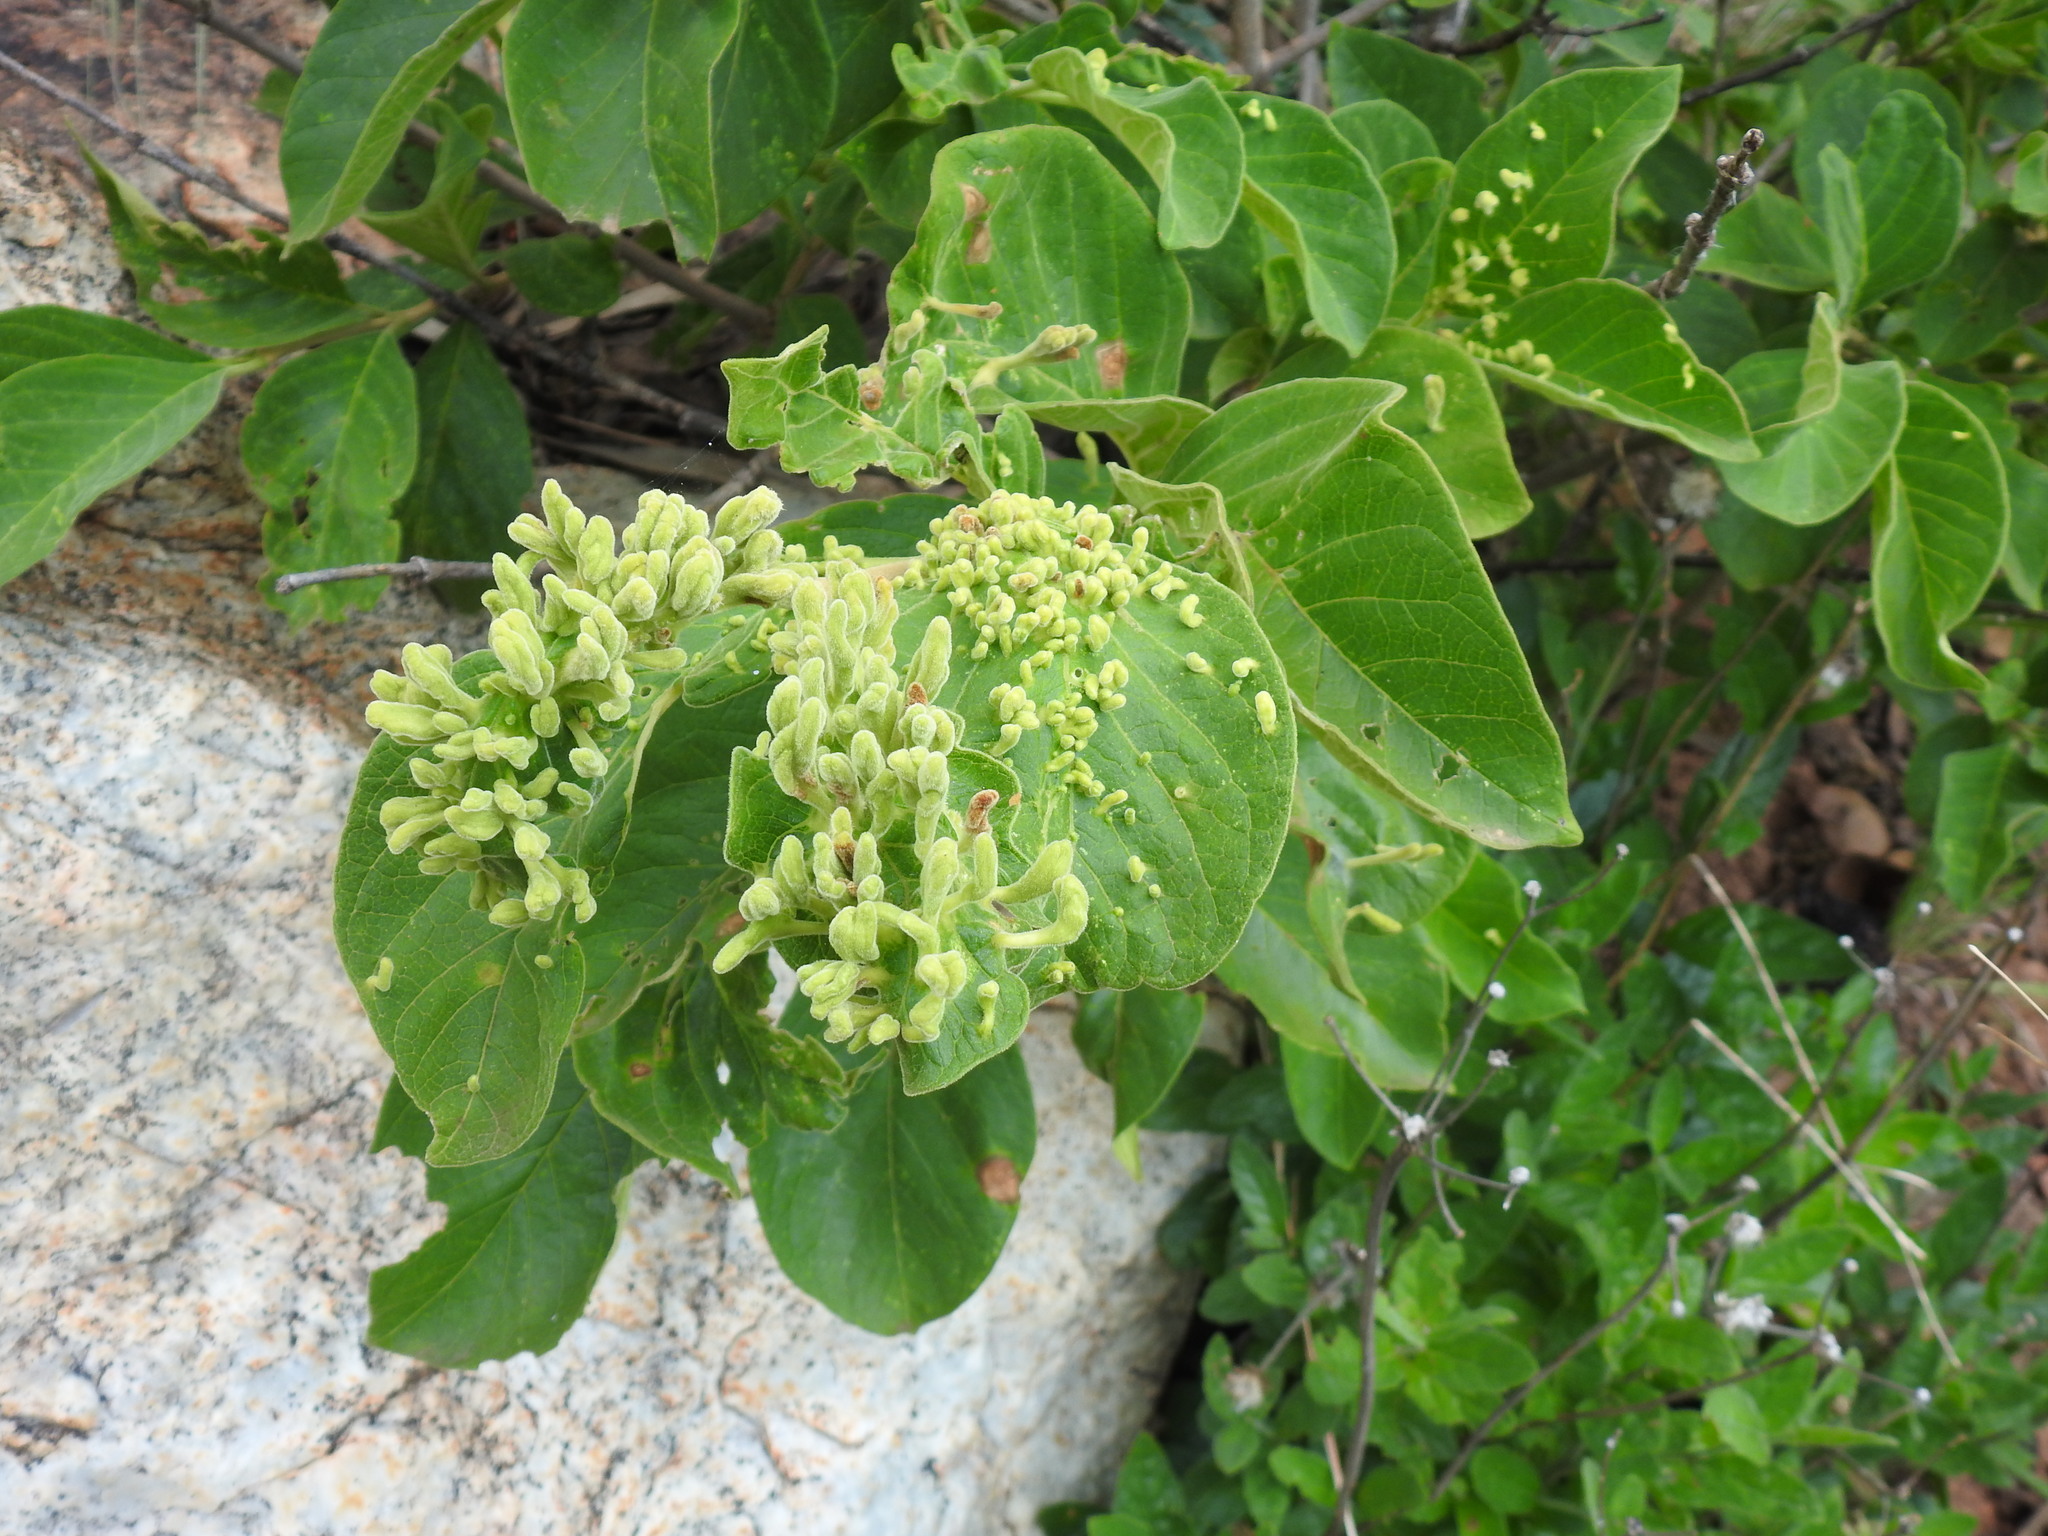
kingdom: Plantae
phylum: Tracheophyta
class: Magnoliopsida
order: Gentianales
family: Rubiaceae
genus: Vangueria
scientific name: Vangueria infausta
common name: Medlar
